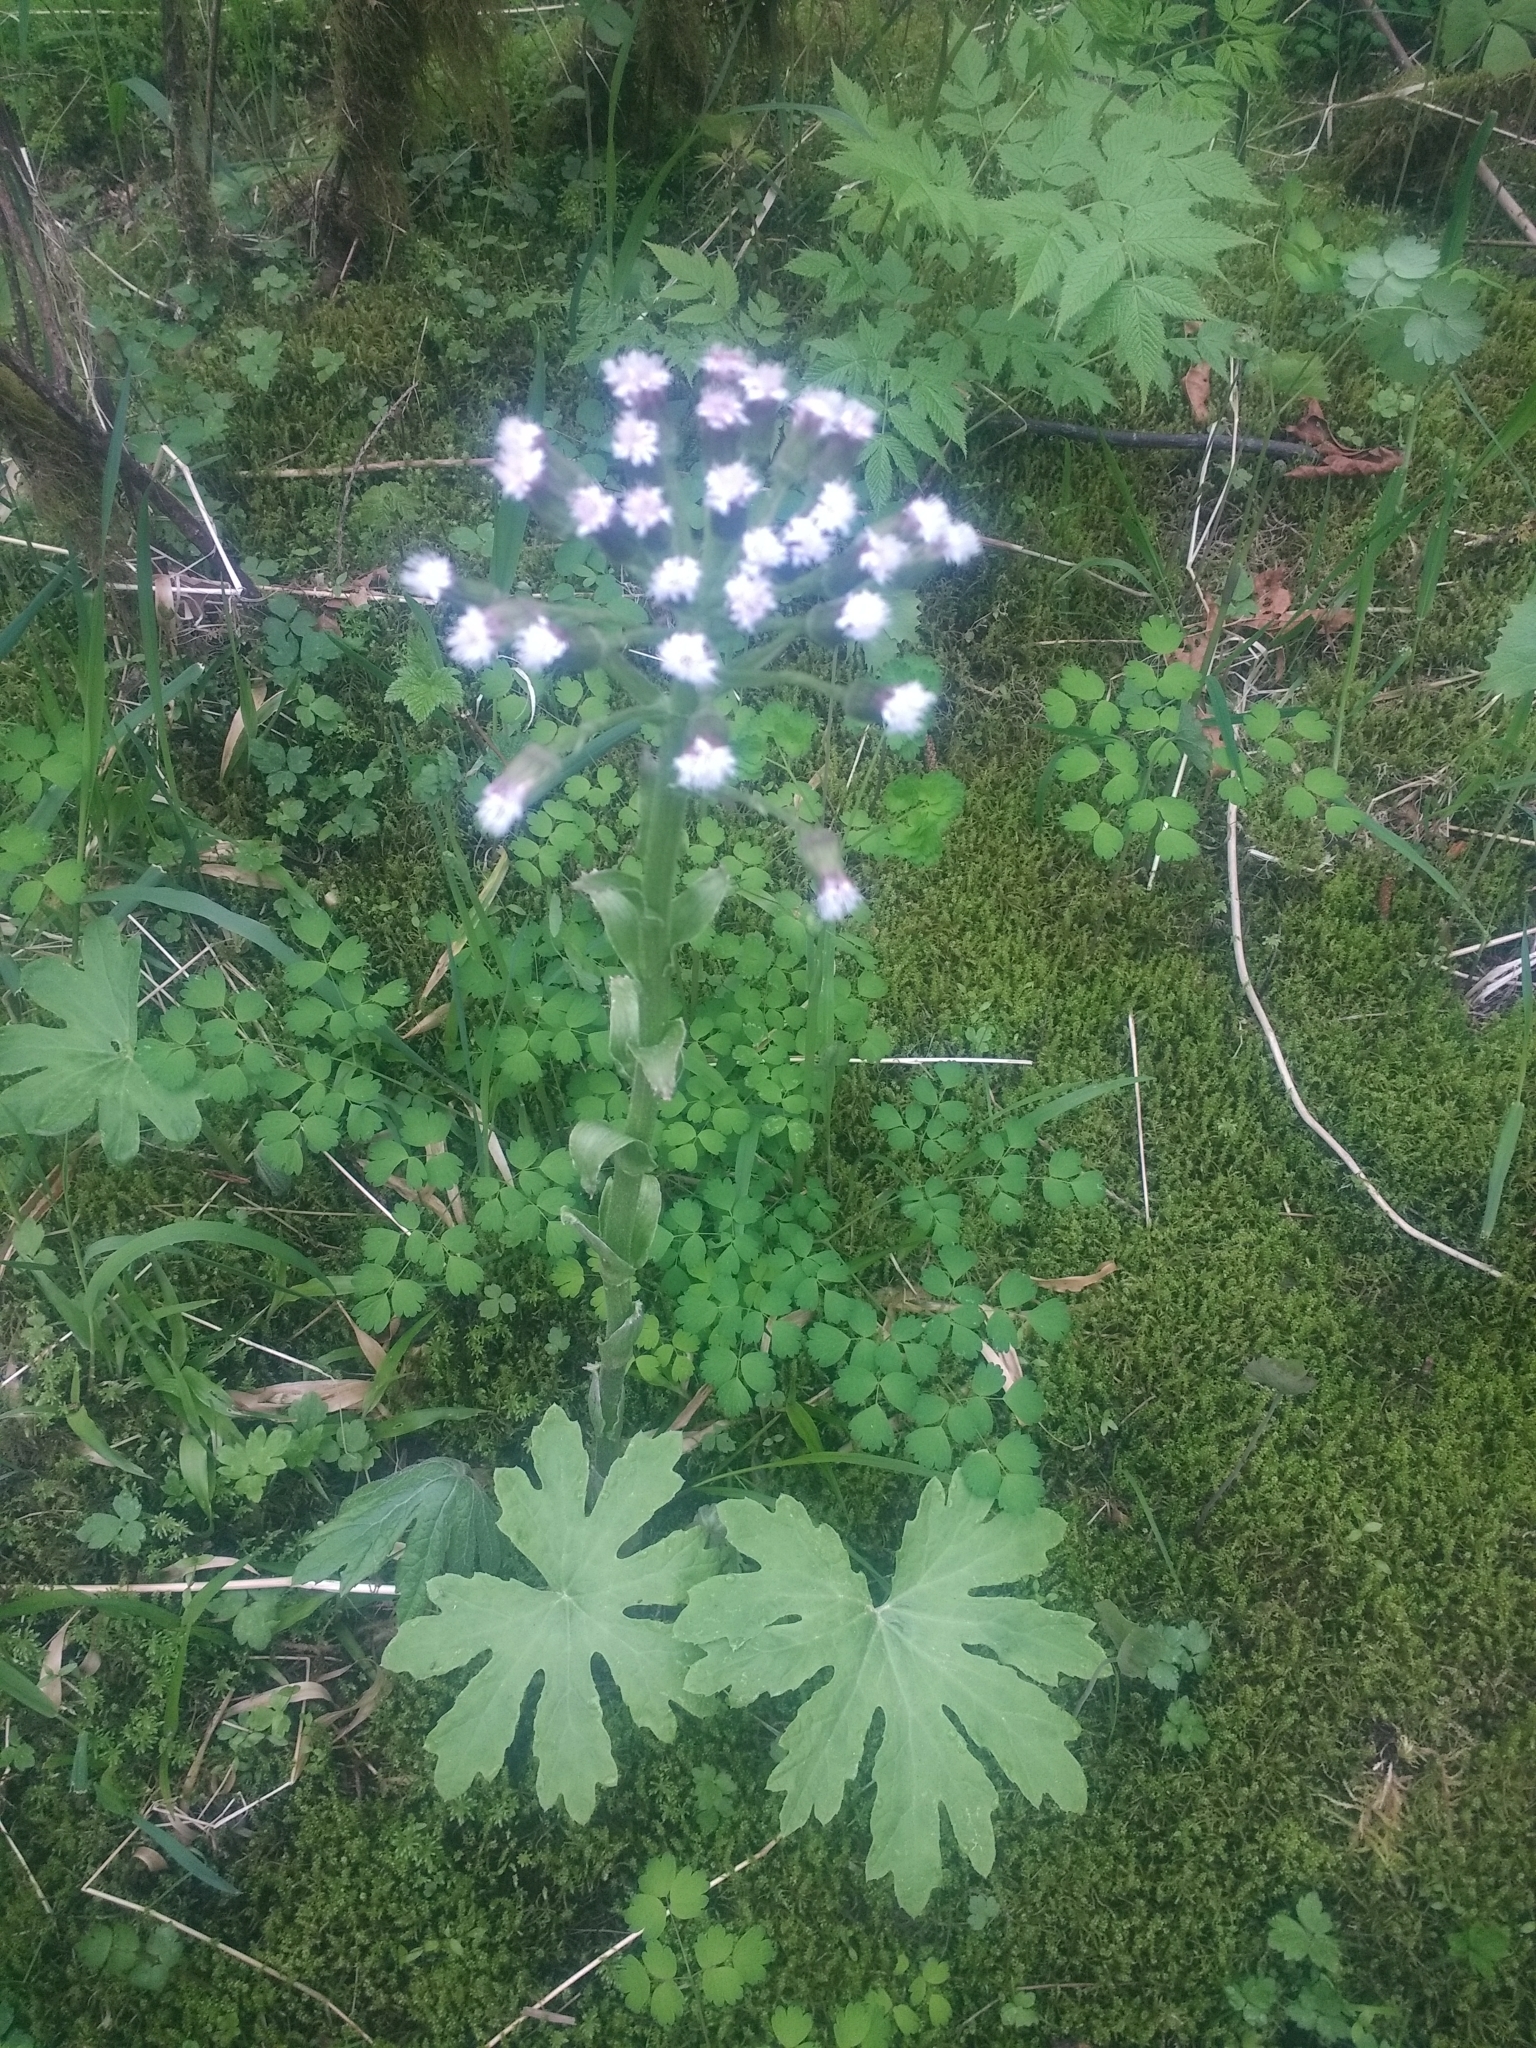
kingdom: Plantae
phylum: Tracheophyta
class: Magnoliopsida
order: Asterales
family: Asteraceae
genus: Petasites
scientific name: Petasites frigidus
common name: Arctic butterbur
